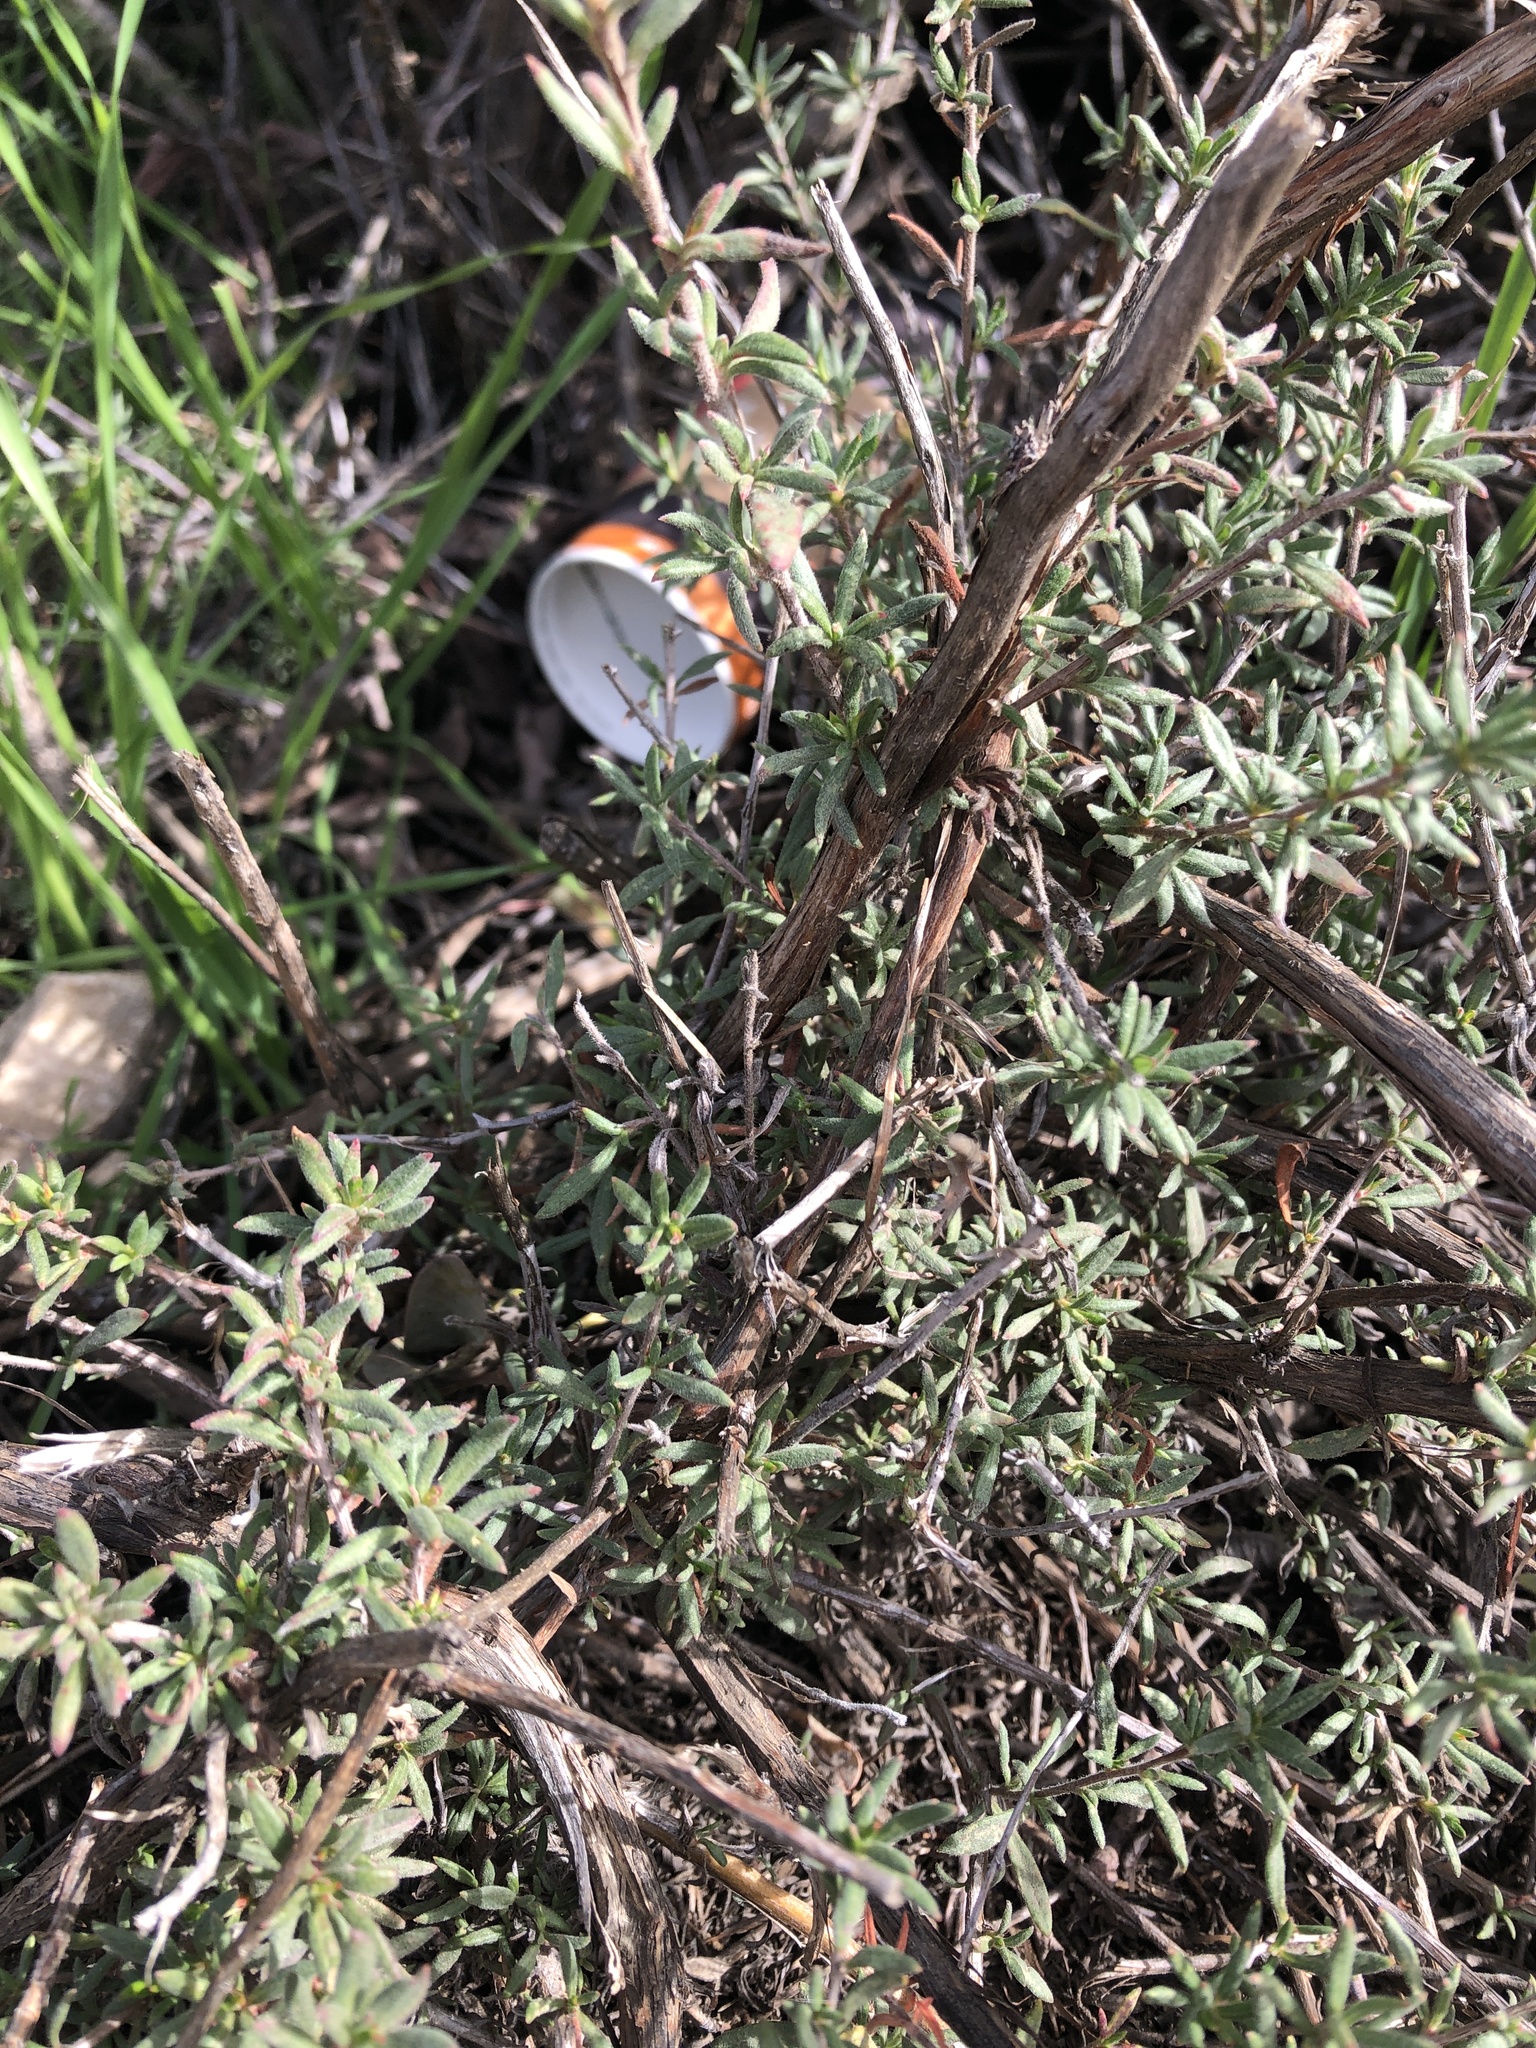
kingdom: Plantae
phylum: Tracheophyta
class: Magnoliopsida
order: Caryophyllales
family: Polygonaceae
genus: Eriogonum
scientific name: Eriogonum fasciculatum
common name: California wild buckwheat
